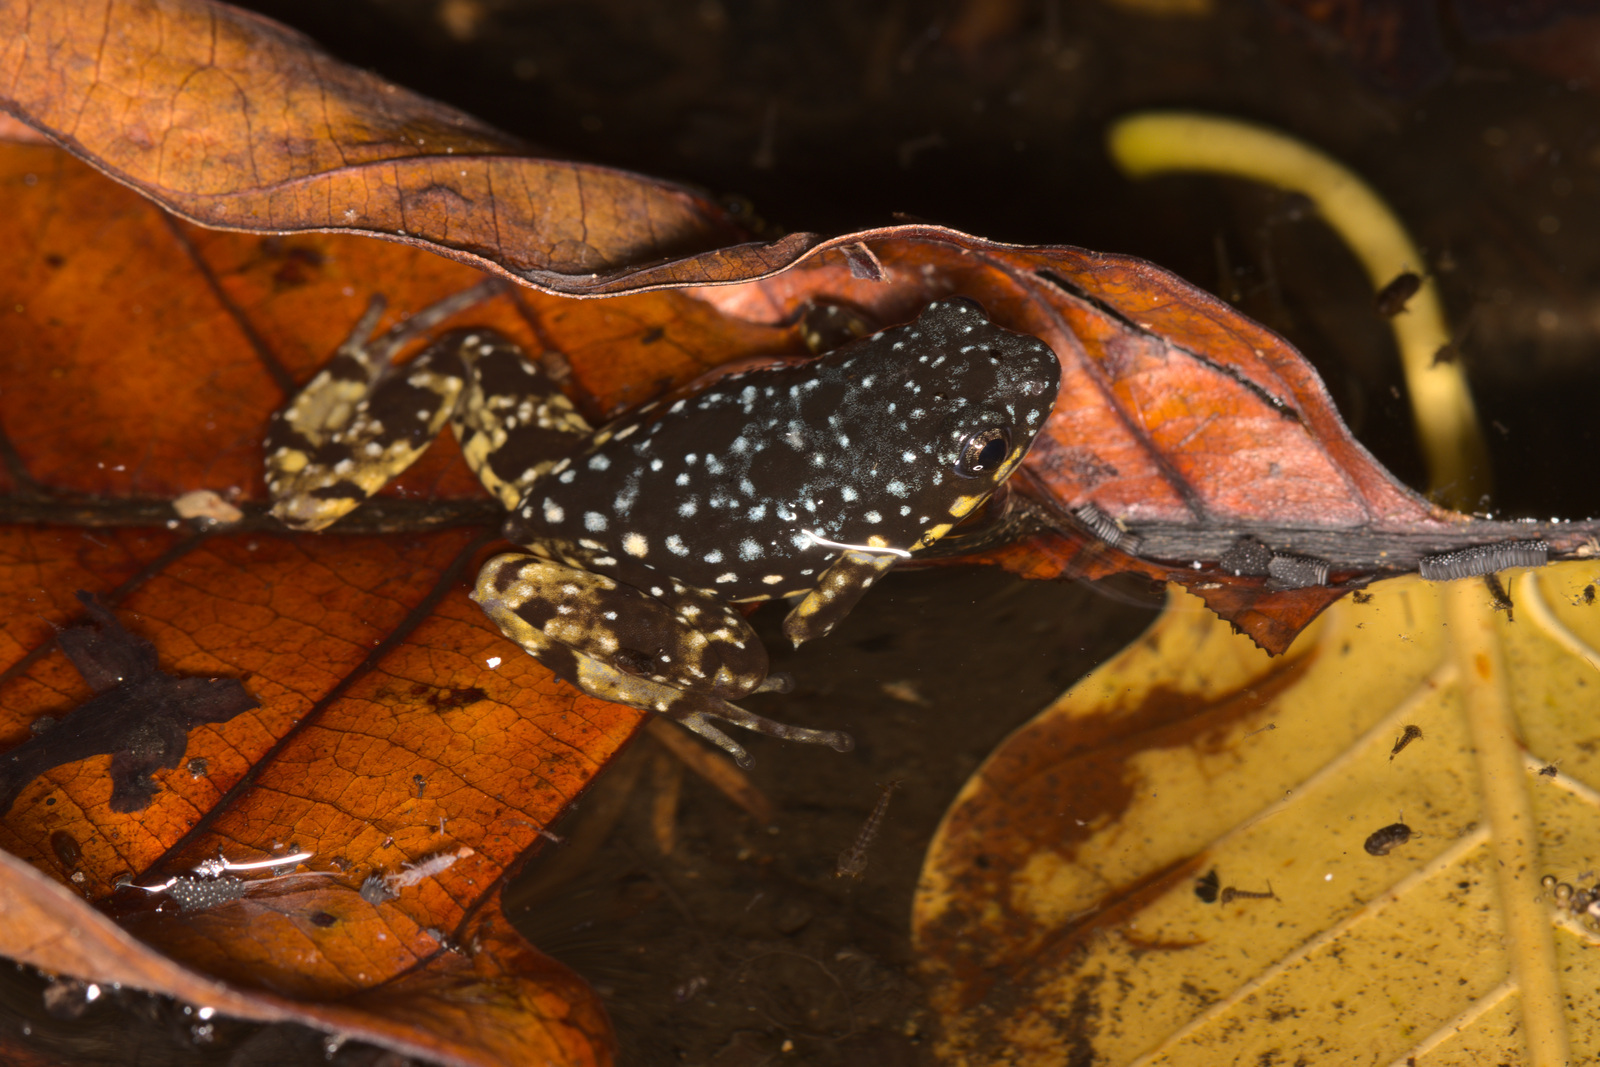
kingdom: Animalia
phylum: Chordata
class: Amphibia
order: Anura
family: Microhylidae
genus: Chaperina
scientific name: Chaperina fusca
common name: Saffron-bellied frog
